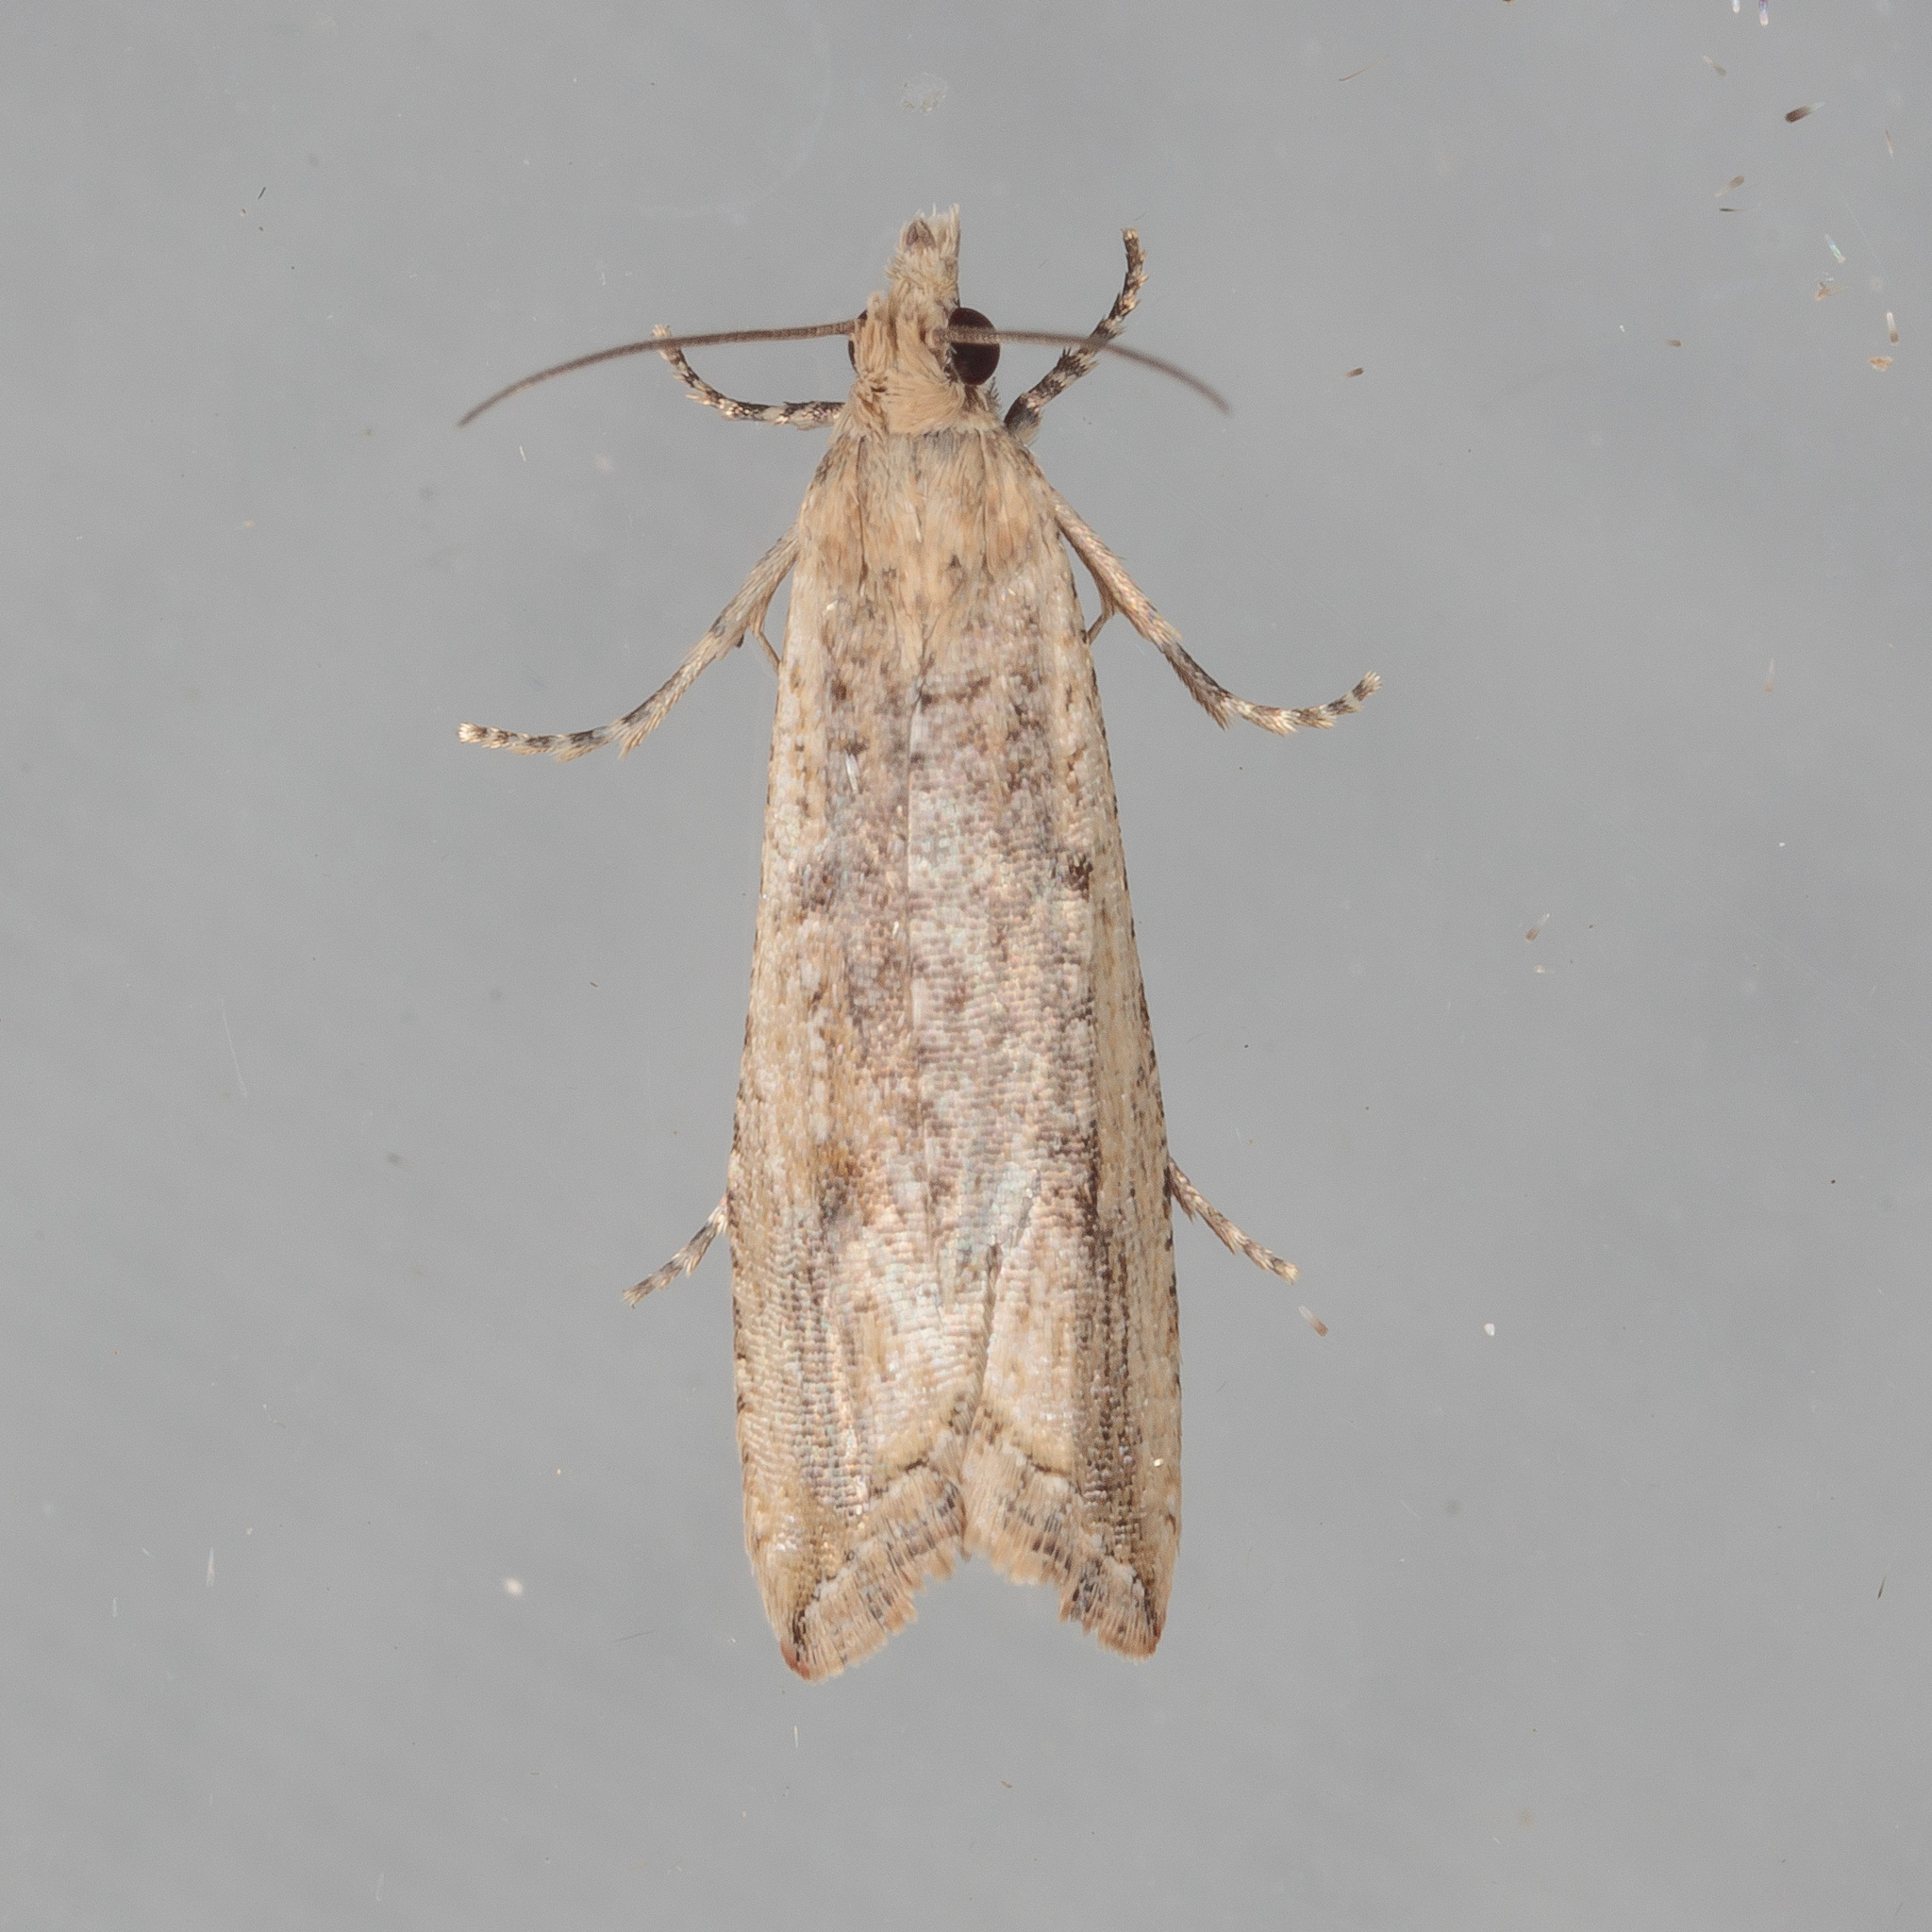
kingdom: Animalia
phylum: Arthropoda
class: Insecta
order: Lepidoptera
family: Tortricidae
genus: Bactra
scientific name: Bactra verutana
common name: Javelin moth
